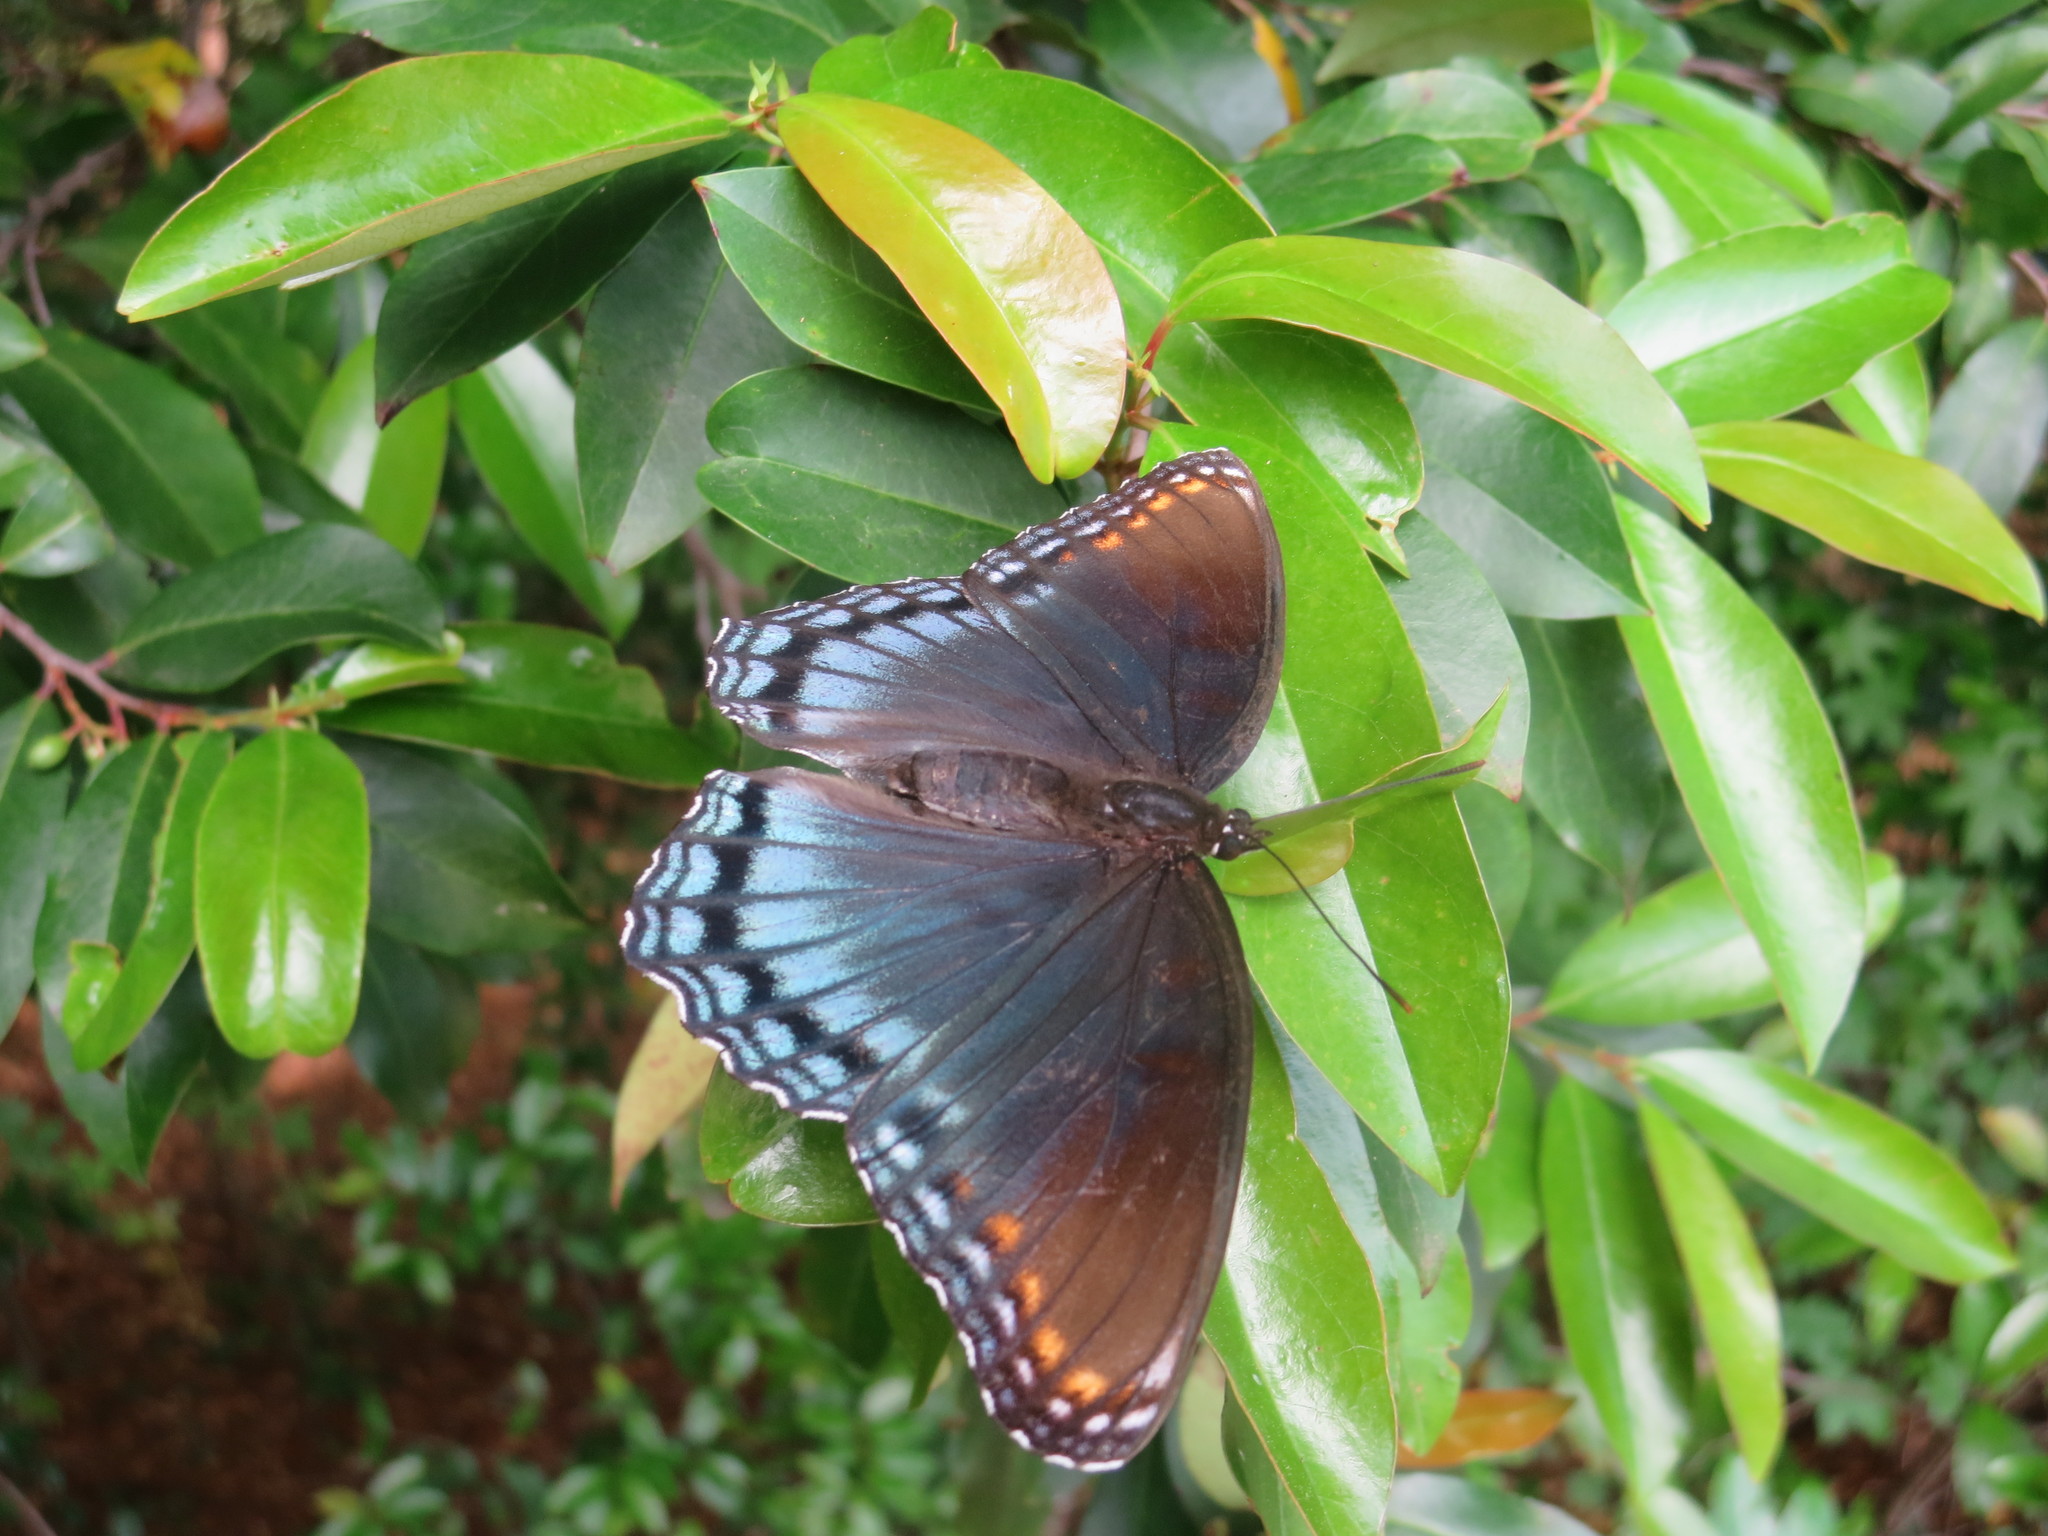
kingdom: Animalia
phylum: Arthropoda
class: Insecta
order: Lepidoptera
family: Nymphalidae
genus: Limenitis
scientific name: Limenitis arthemis
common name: Red-spotted admiral
